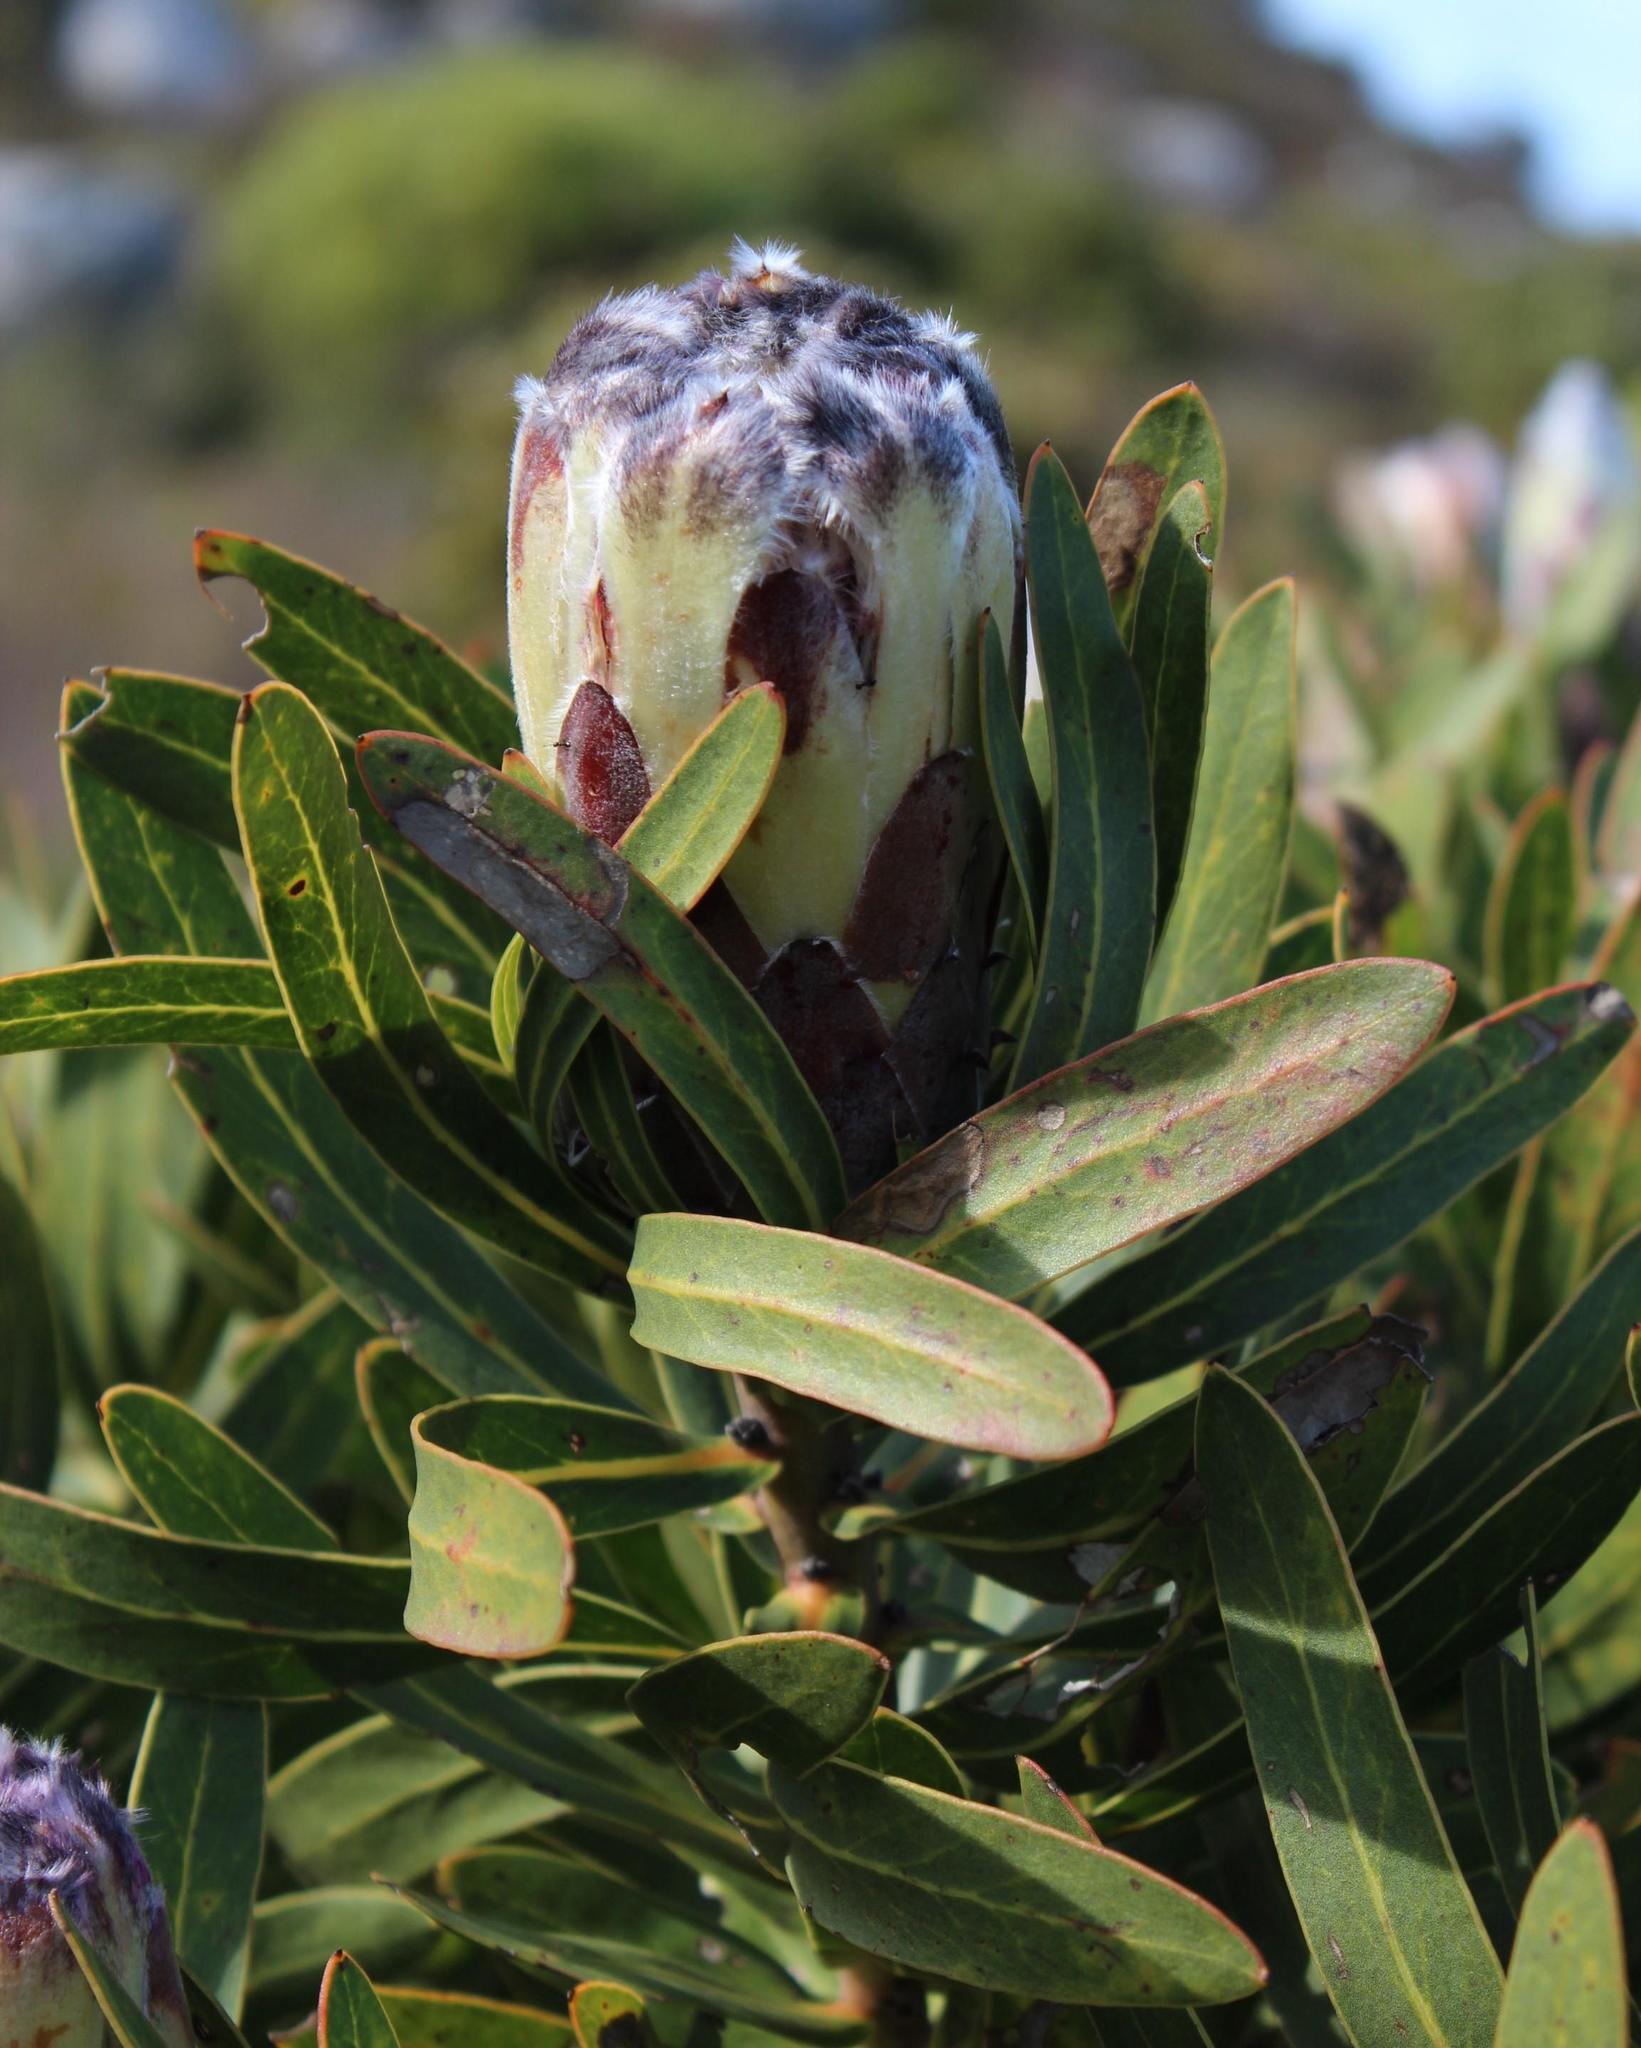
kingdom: Plantae
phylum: Tracheophyta
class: Magnoliopsida
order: Proteales
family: Proteaceae
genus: Protea
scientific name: Protea lepidocarpodendron
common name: Black-bearded protea
